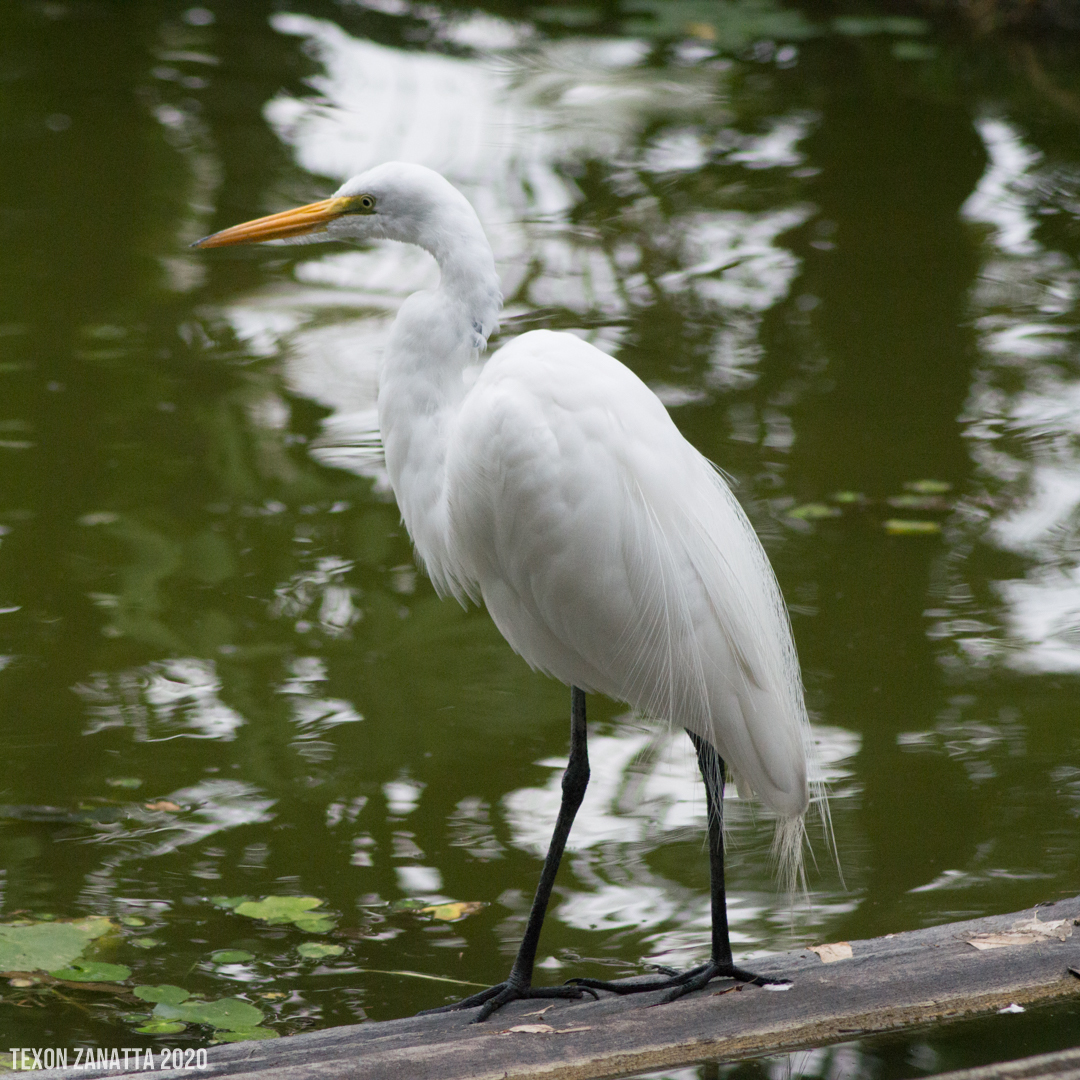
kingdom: Animalia
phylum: Chordata
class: Aves
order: Pelecaniformes
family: Ardeidae
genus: Ardea
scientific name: Ardea alba
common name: Great egret
